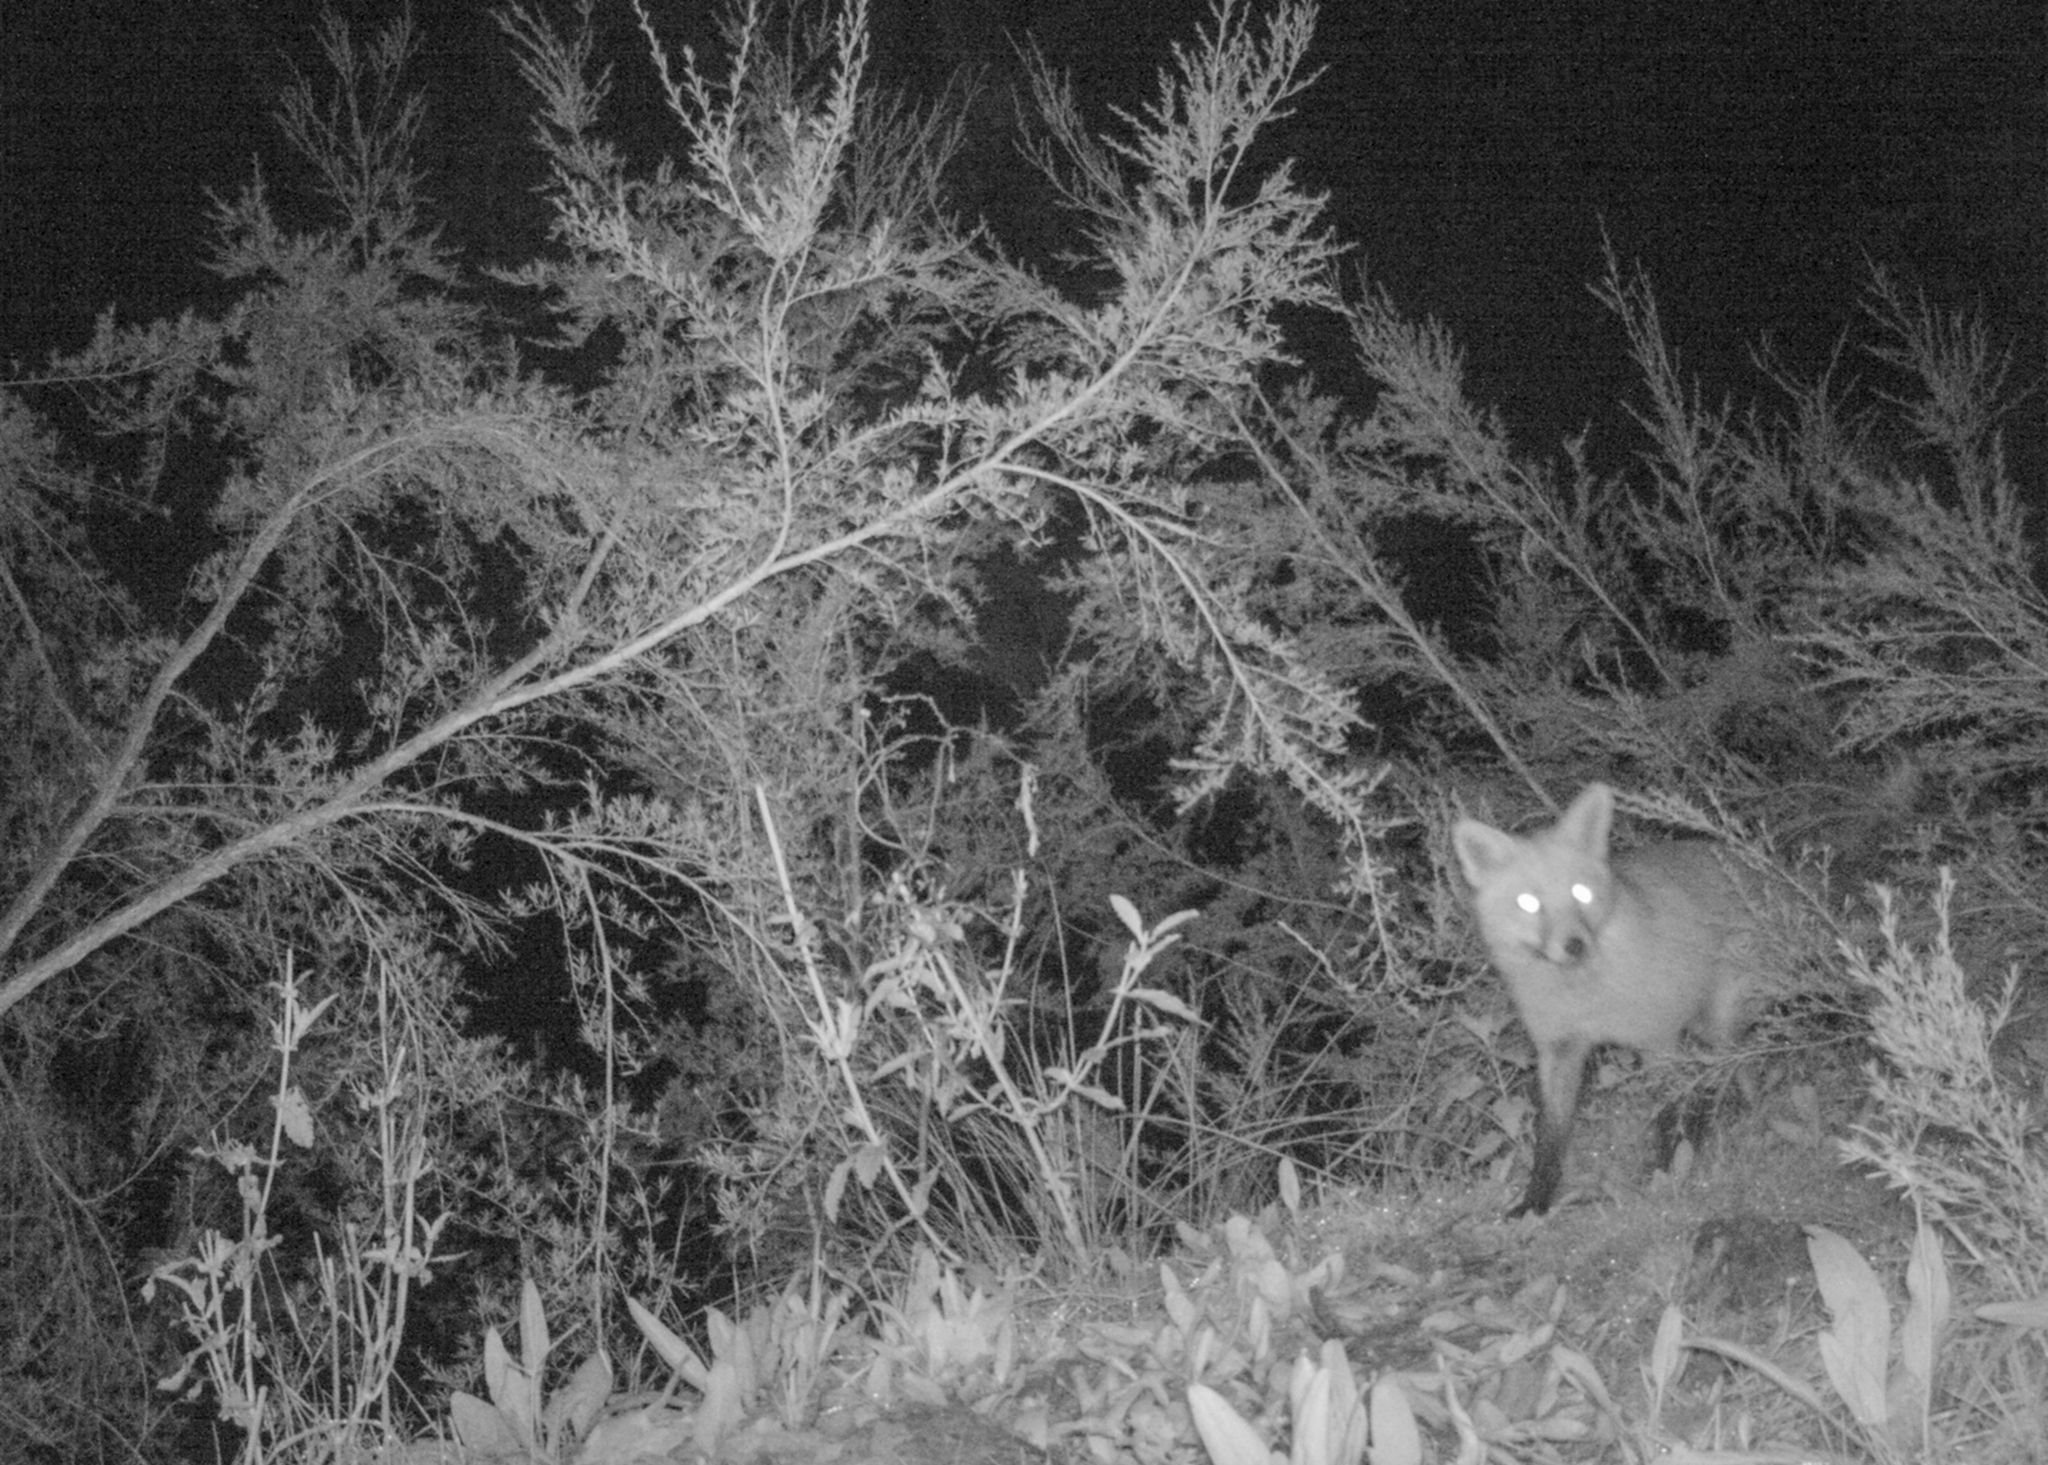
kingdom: Animalia
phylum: Chordata
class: Mammalia
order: Carnivora
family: Canidae
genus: Vulpes
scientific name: Vulpes vulpes
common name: Red fox
